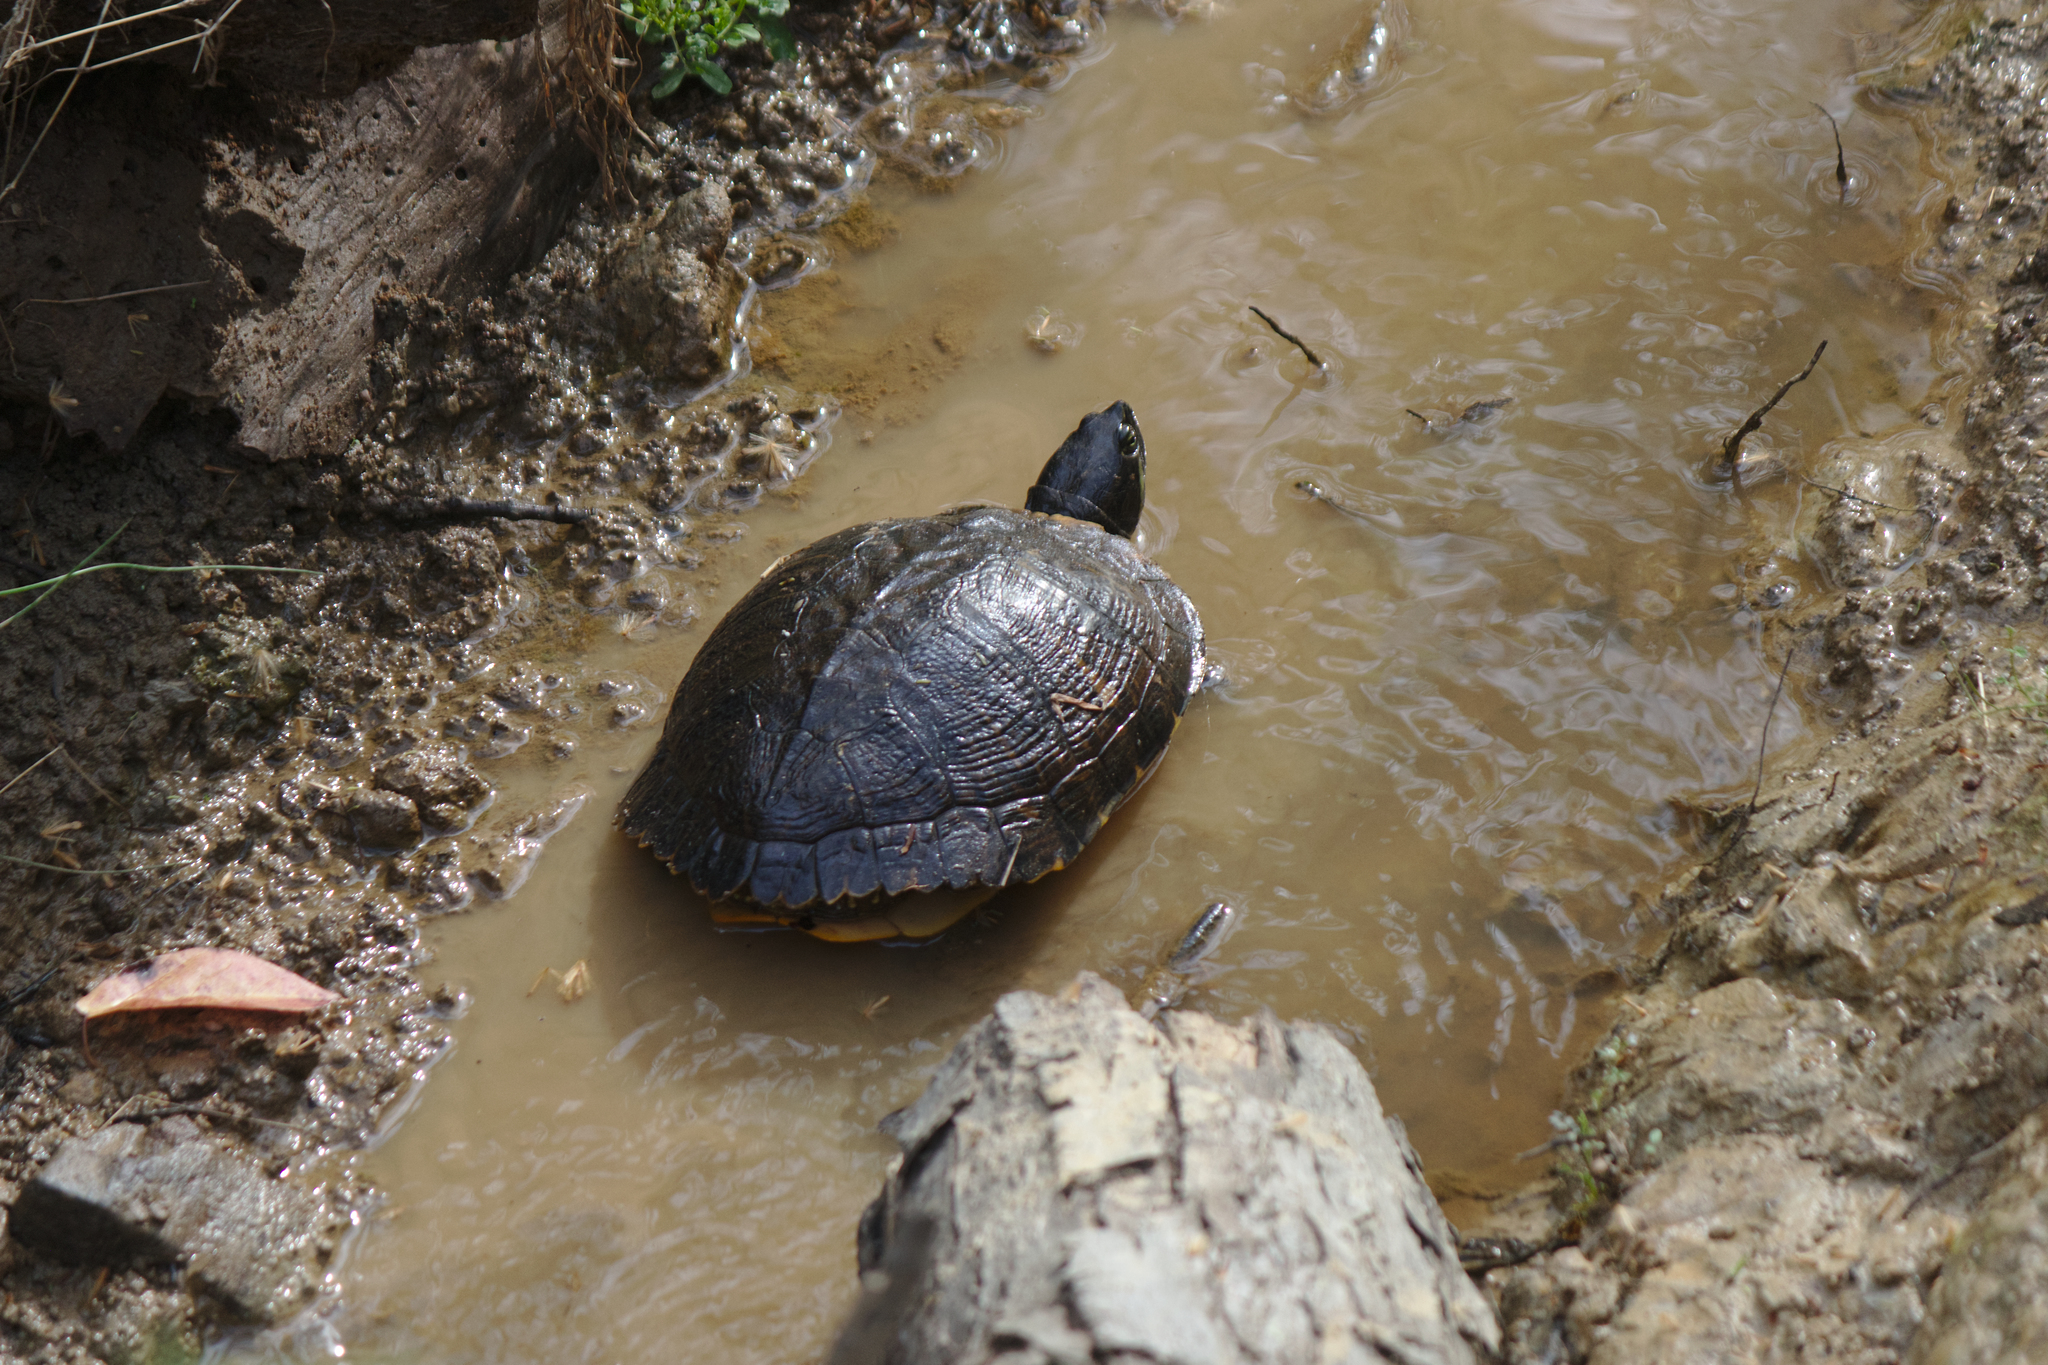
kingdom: Animalia
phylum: Chordata
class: Testudines
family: Emydidae
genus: Trachemys
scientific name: Trachemys scripta
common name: Slider
